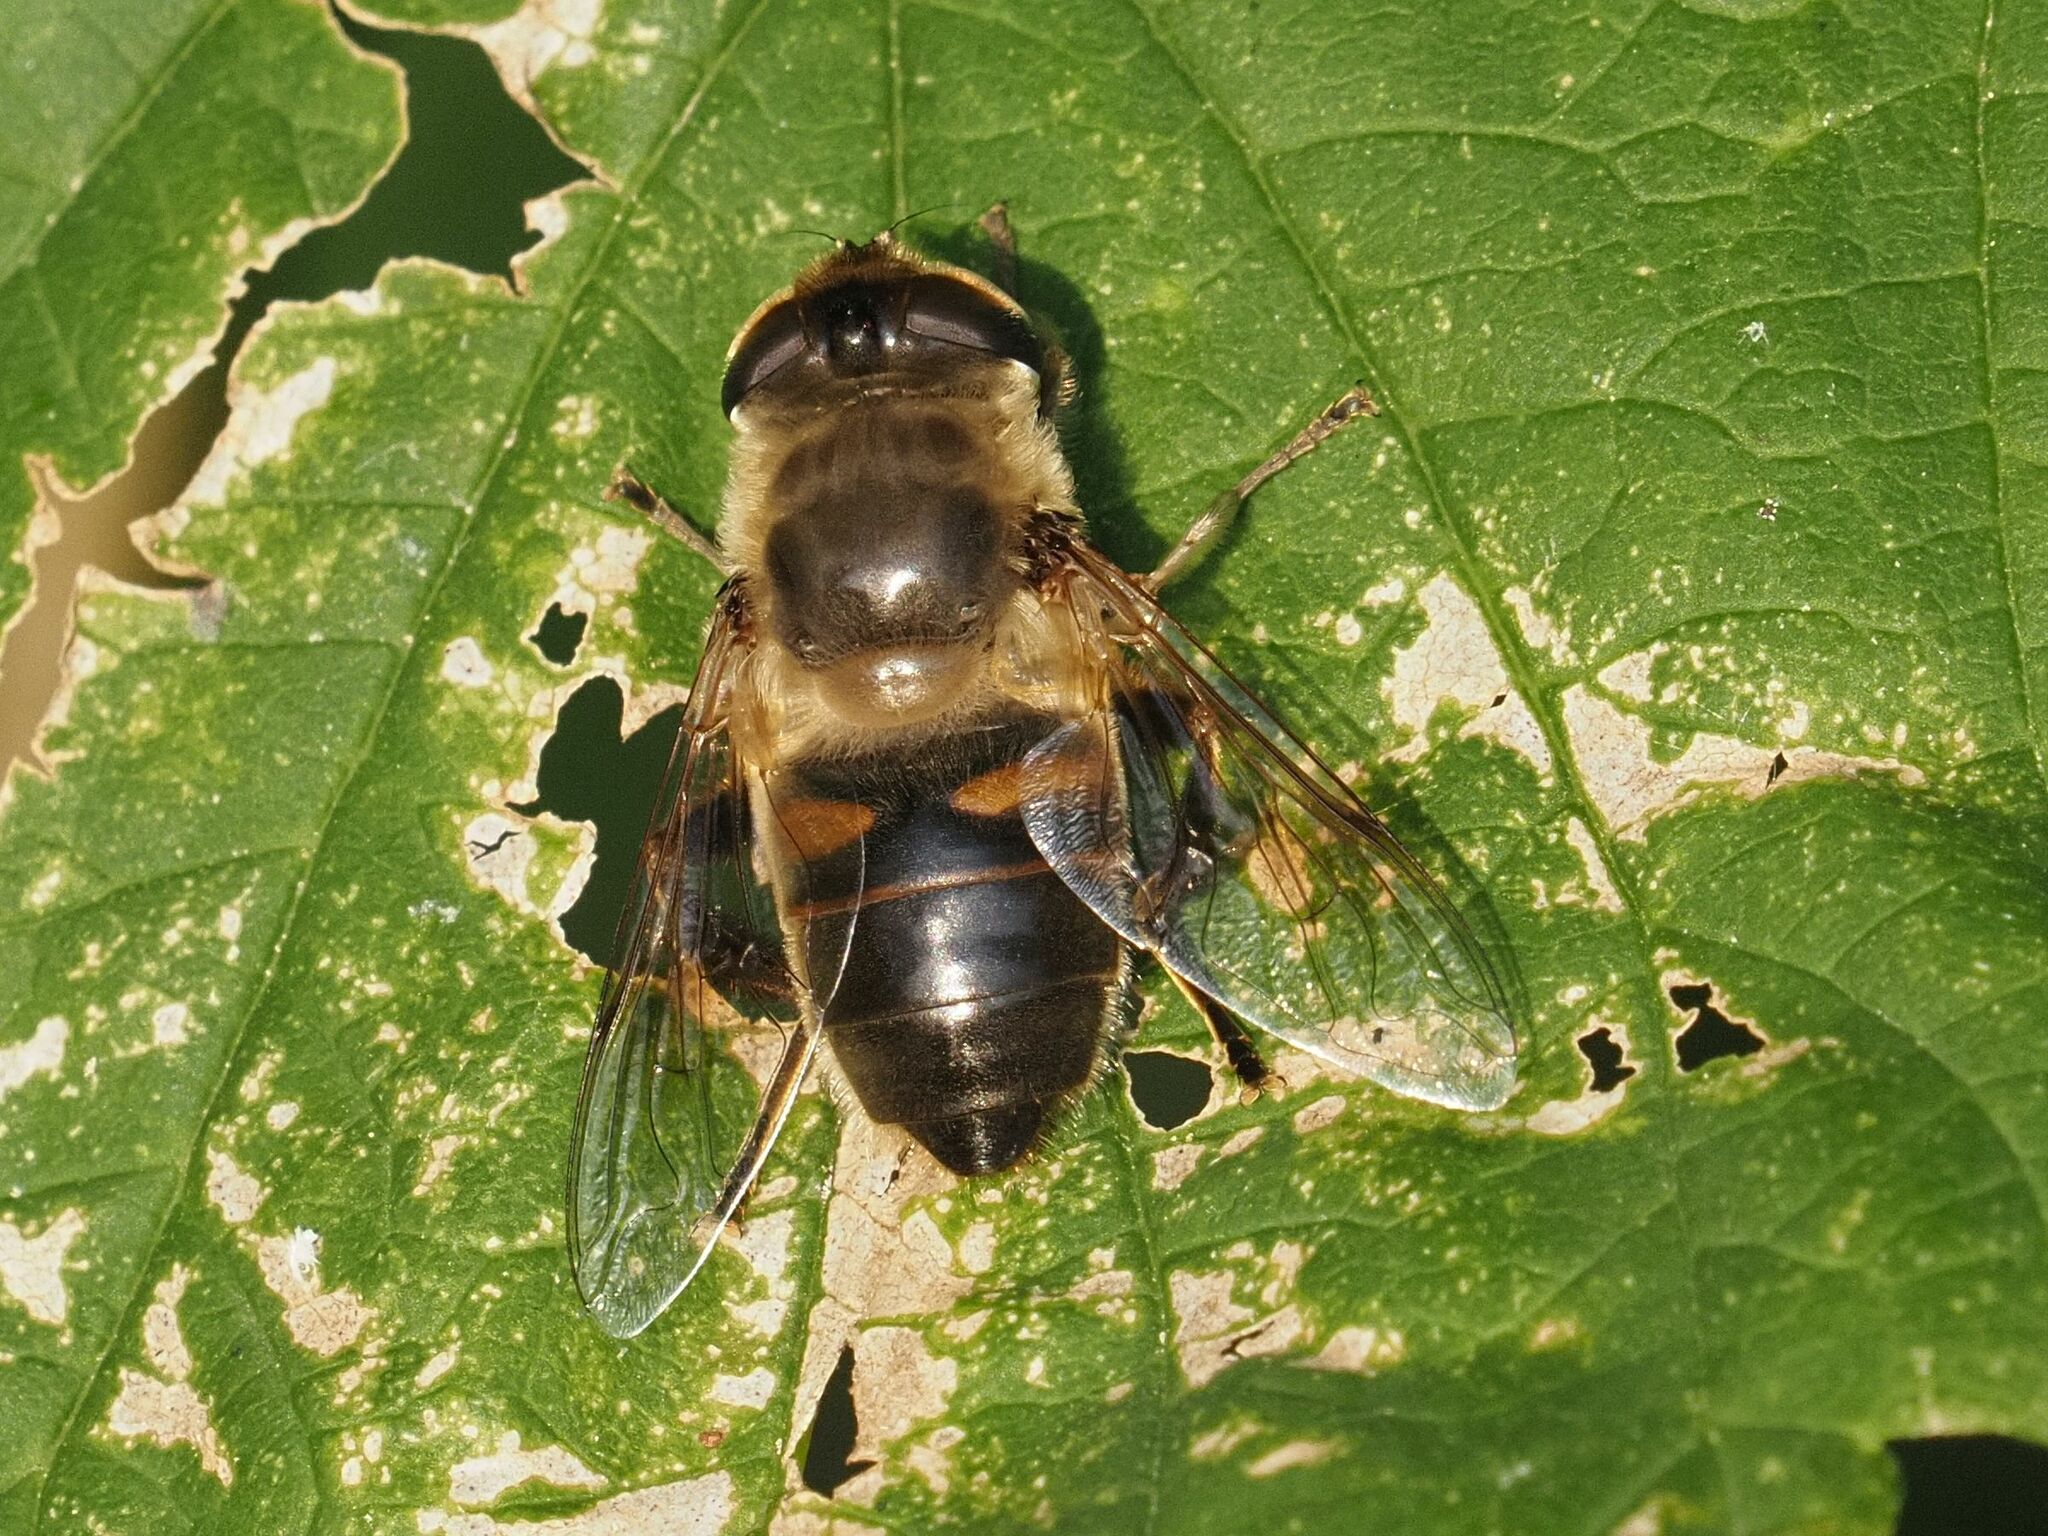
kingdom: Animalia
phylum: Arthropoda
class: Insecta
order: Diptera
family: Syrphidae
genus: Eristalis
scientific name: Eristalis tenax
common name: Drone fly
